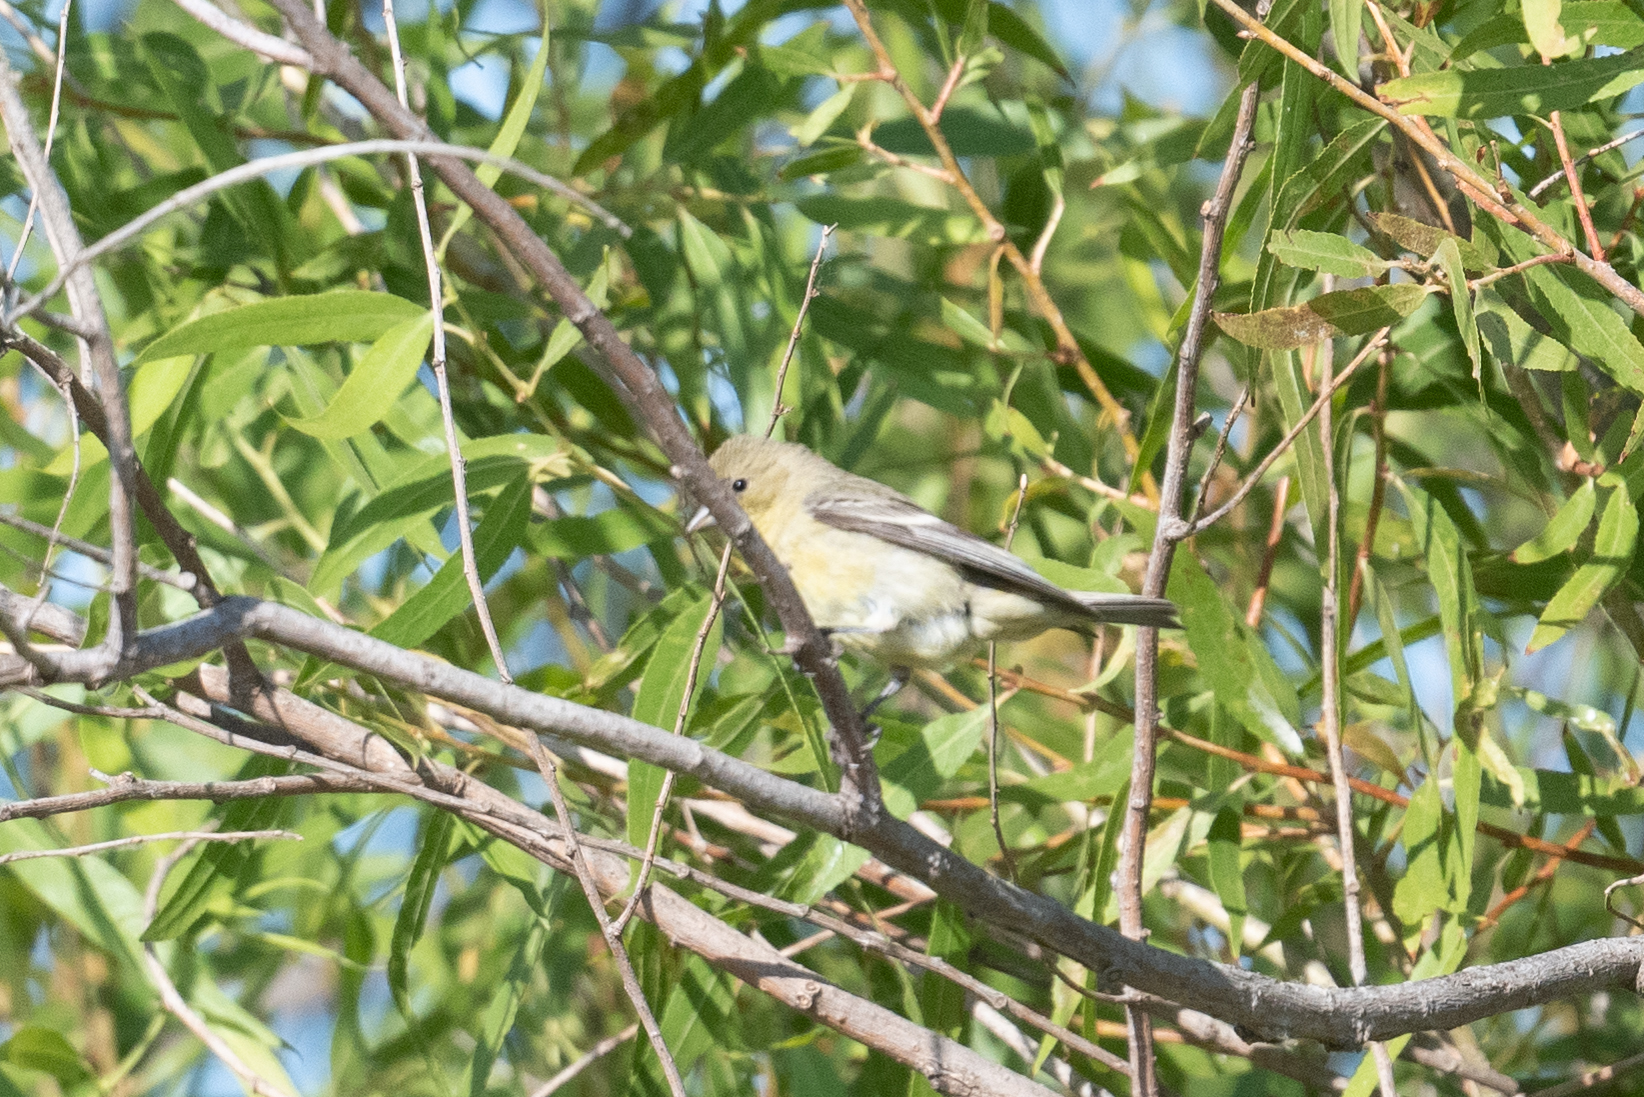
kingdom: Animalia
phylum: Chordata
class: Aves
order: Passeriformes
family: Fringillidae
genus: Spinus
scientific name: Spinus psaltria
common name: Lesser goldfinch
